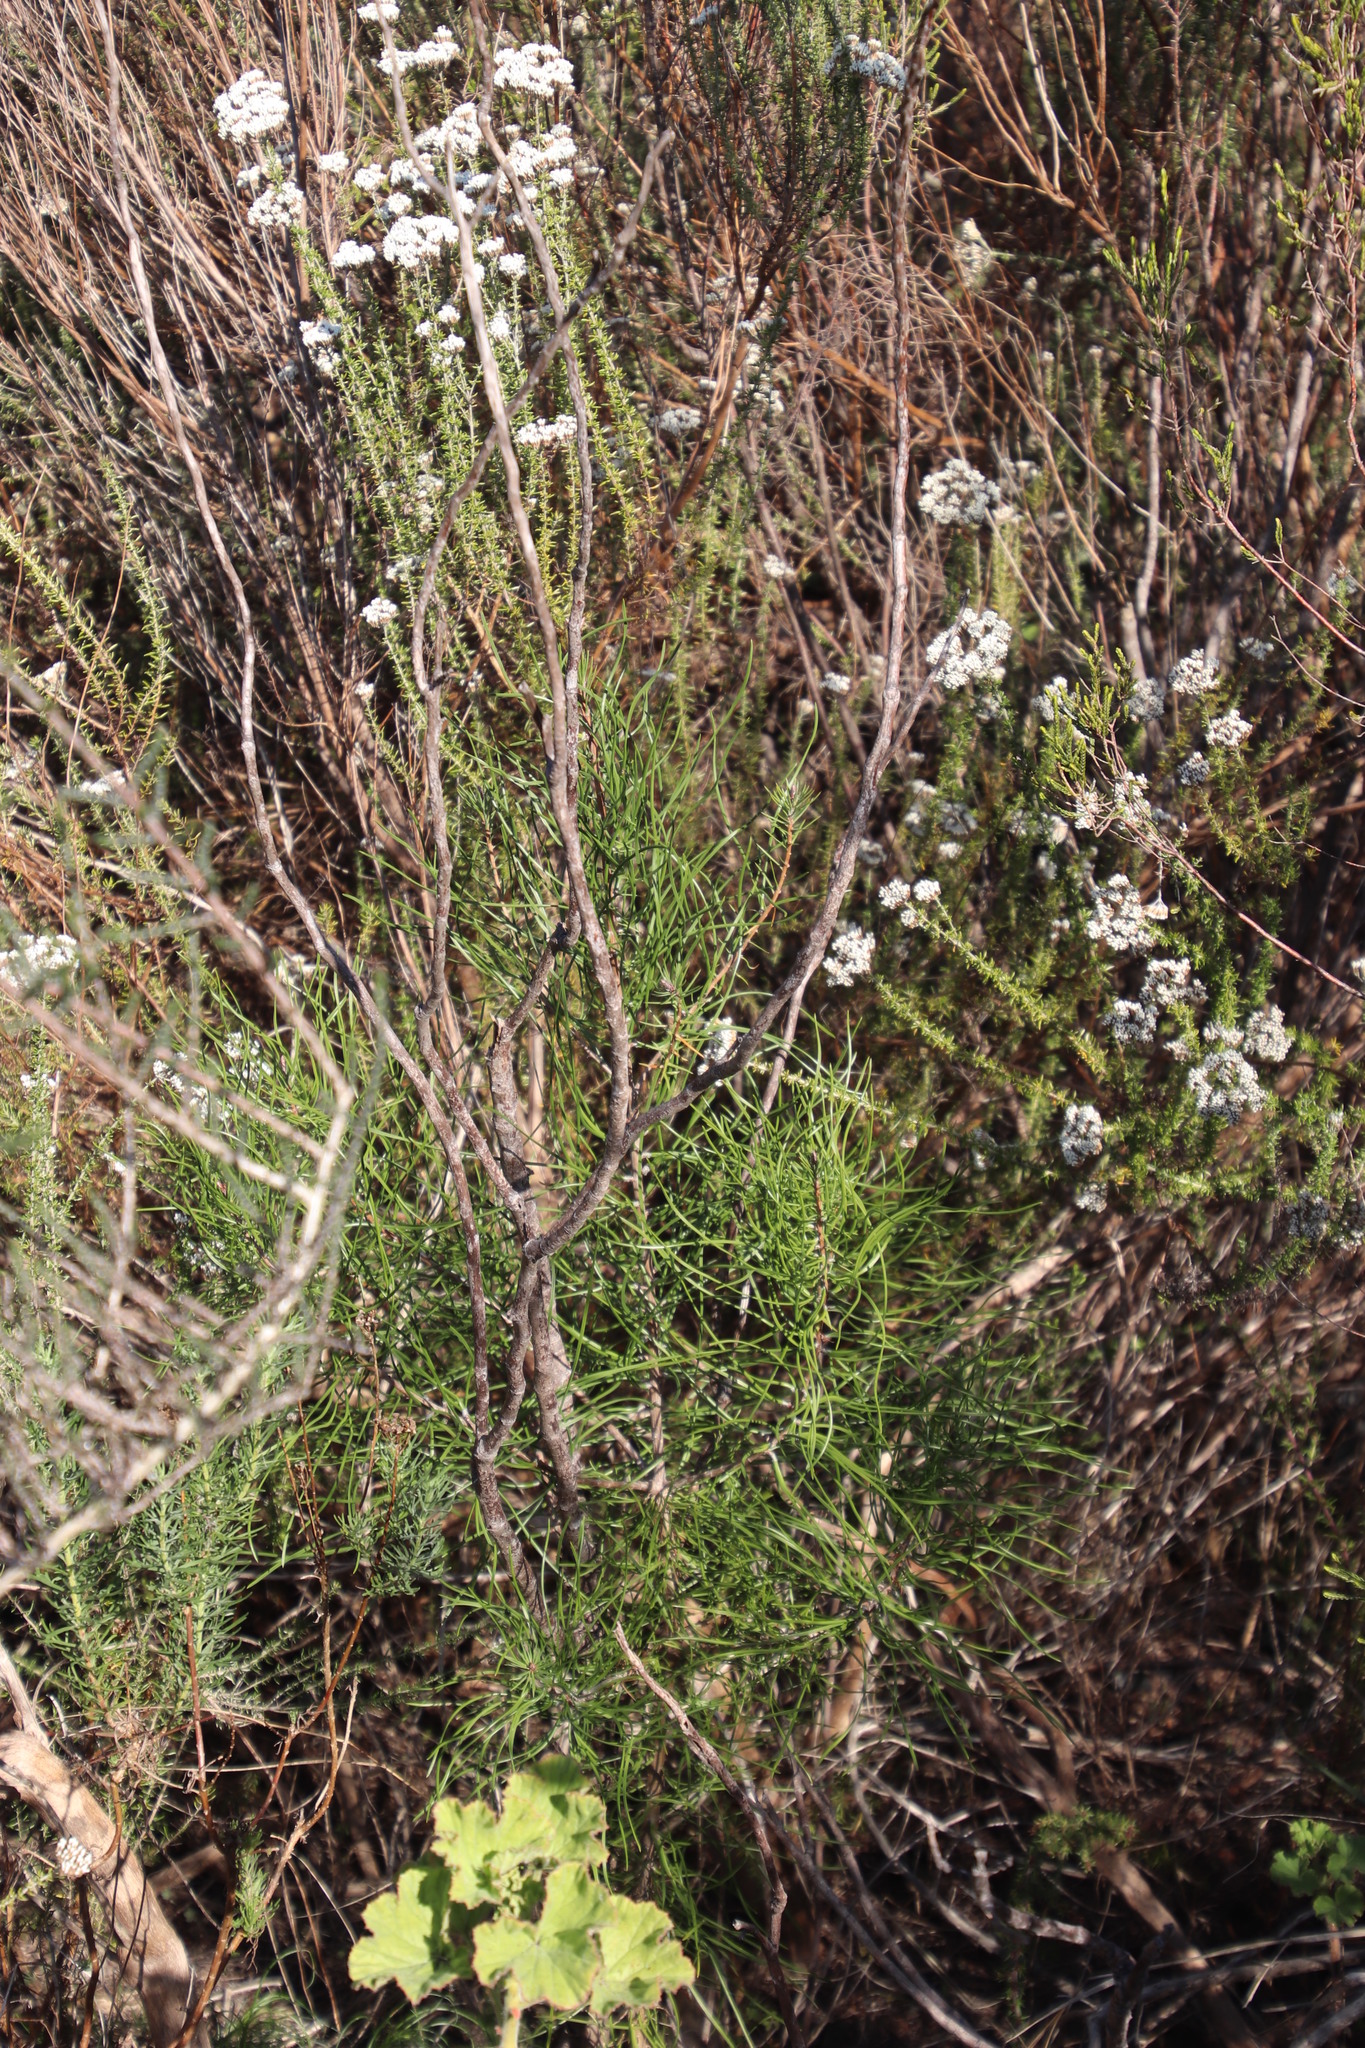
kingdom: Plantae
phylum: Tracheophyta
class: Pinopsida
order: Pinales
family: Pinaceae
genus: Pinus
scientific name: Pinus pinaster
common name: Maritime pine
